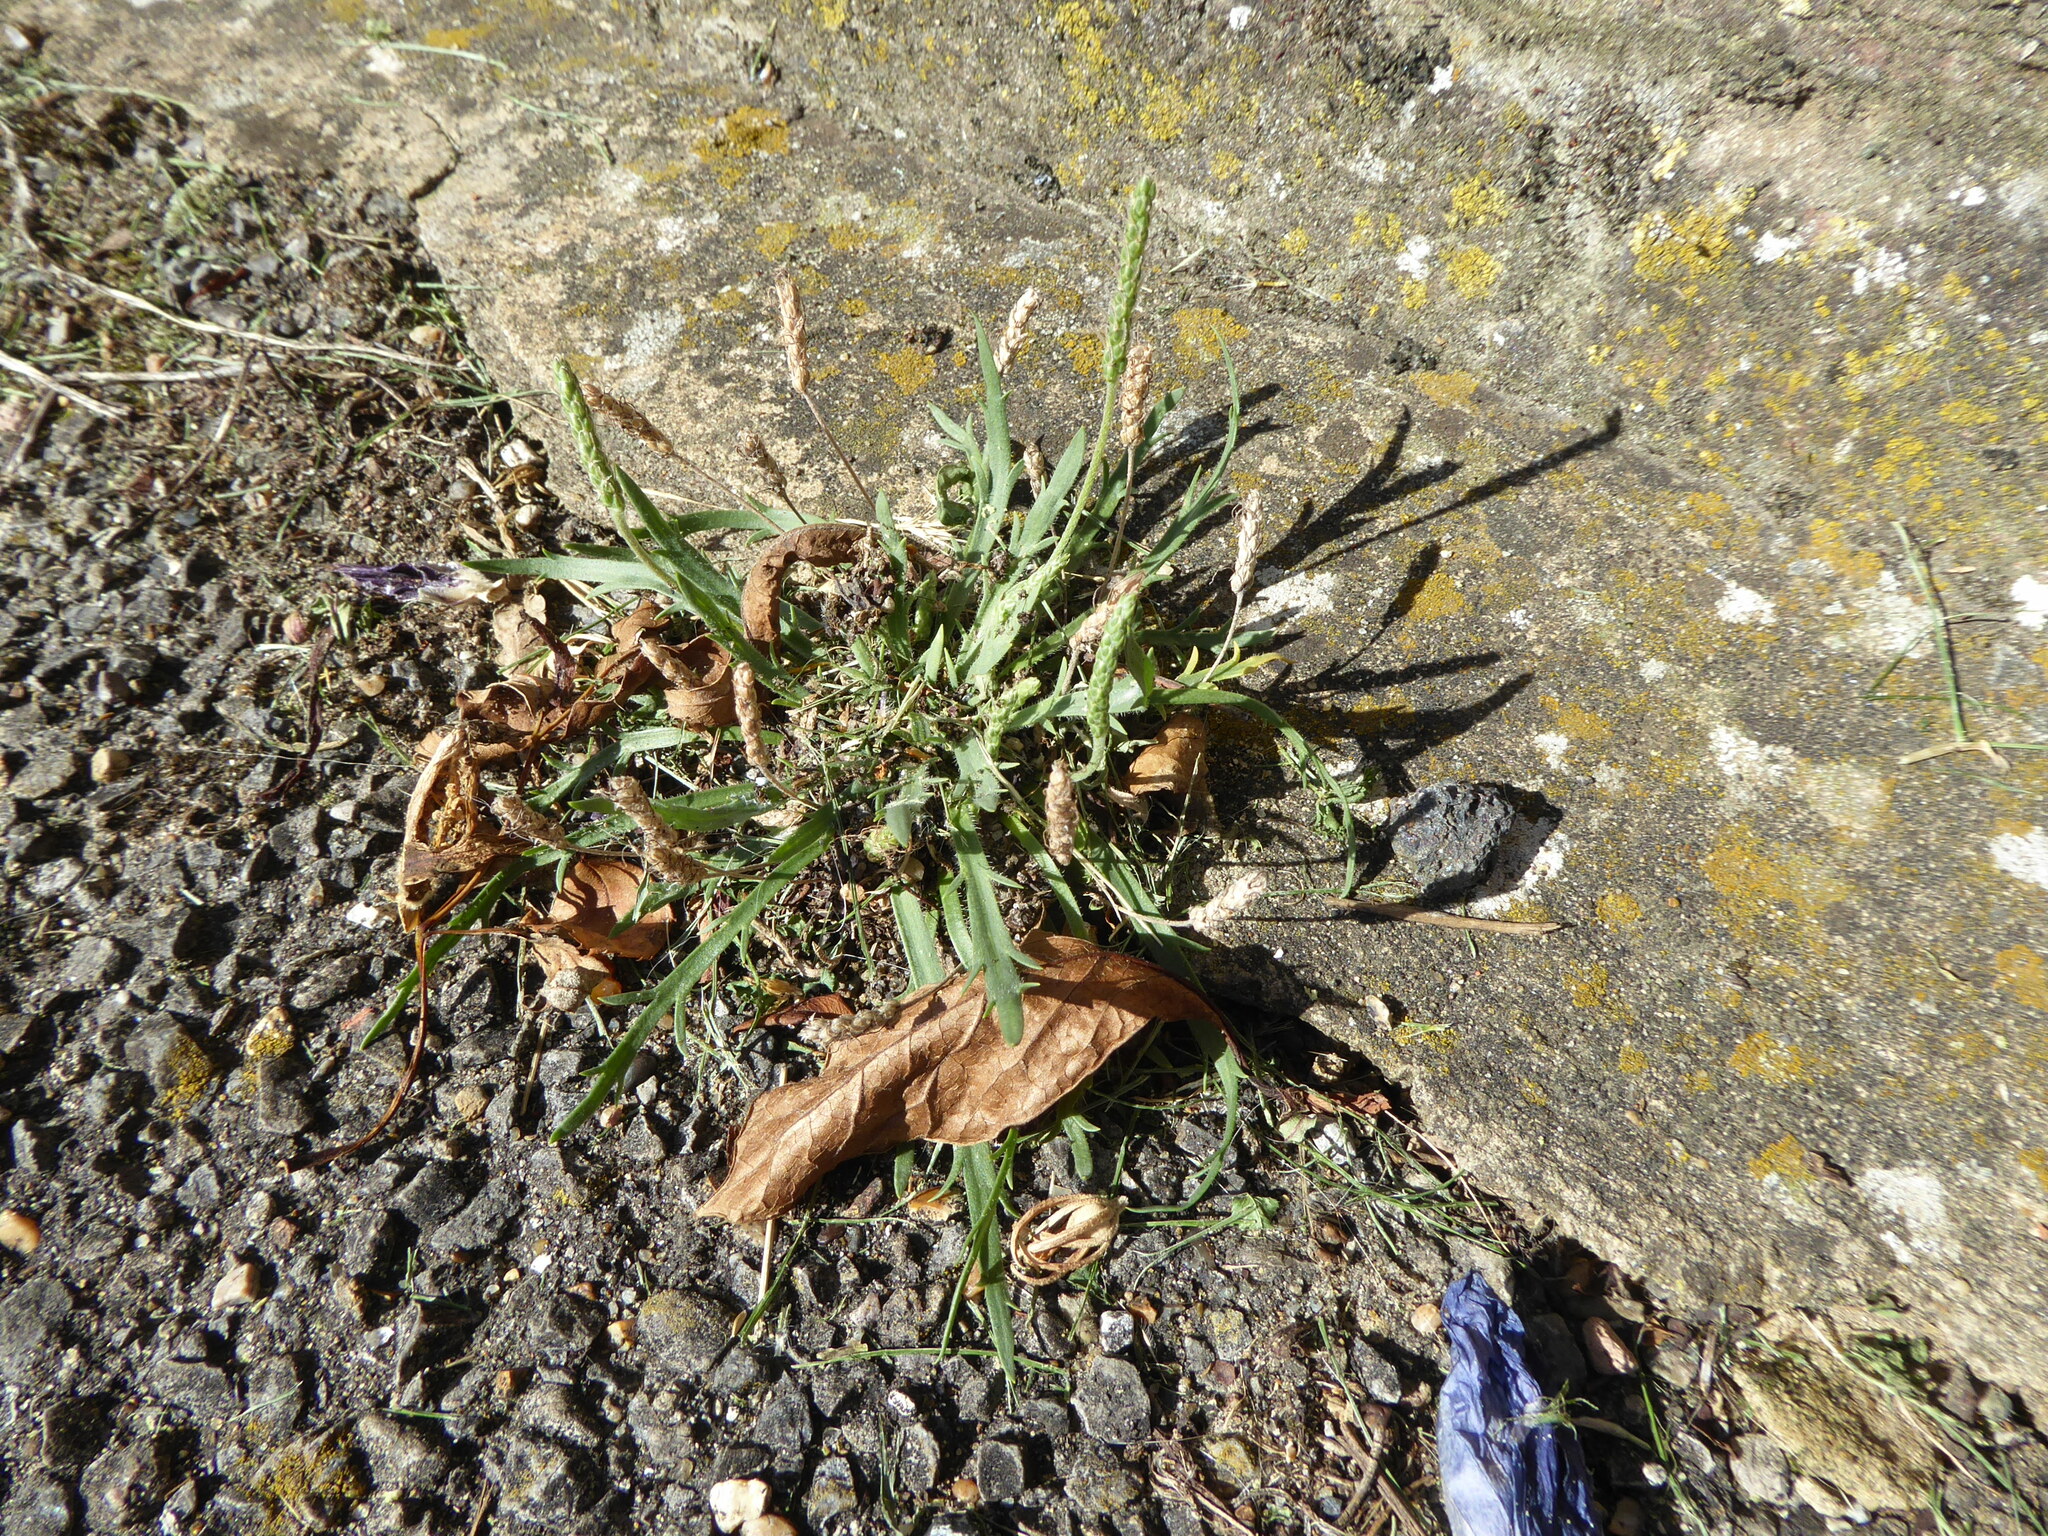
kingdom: Plantae
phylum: Tracheophyta
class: Magnoliopsida
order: Lamiales
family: Plantaginaceae
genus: Plantago
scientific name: Plantago coronopus
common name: Buck's-horn plantain
